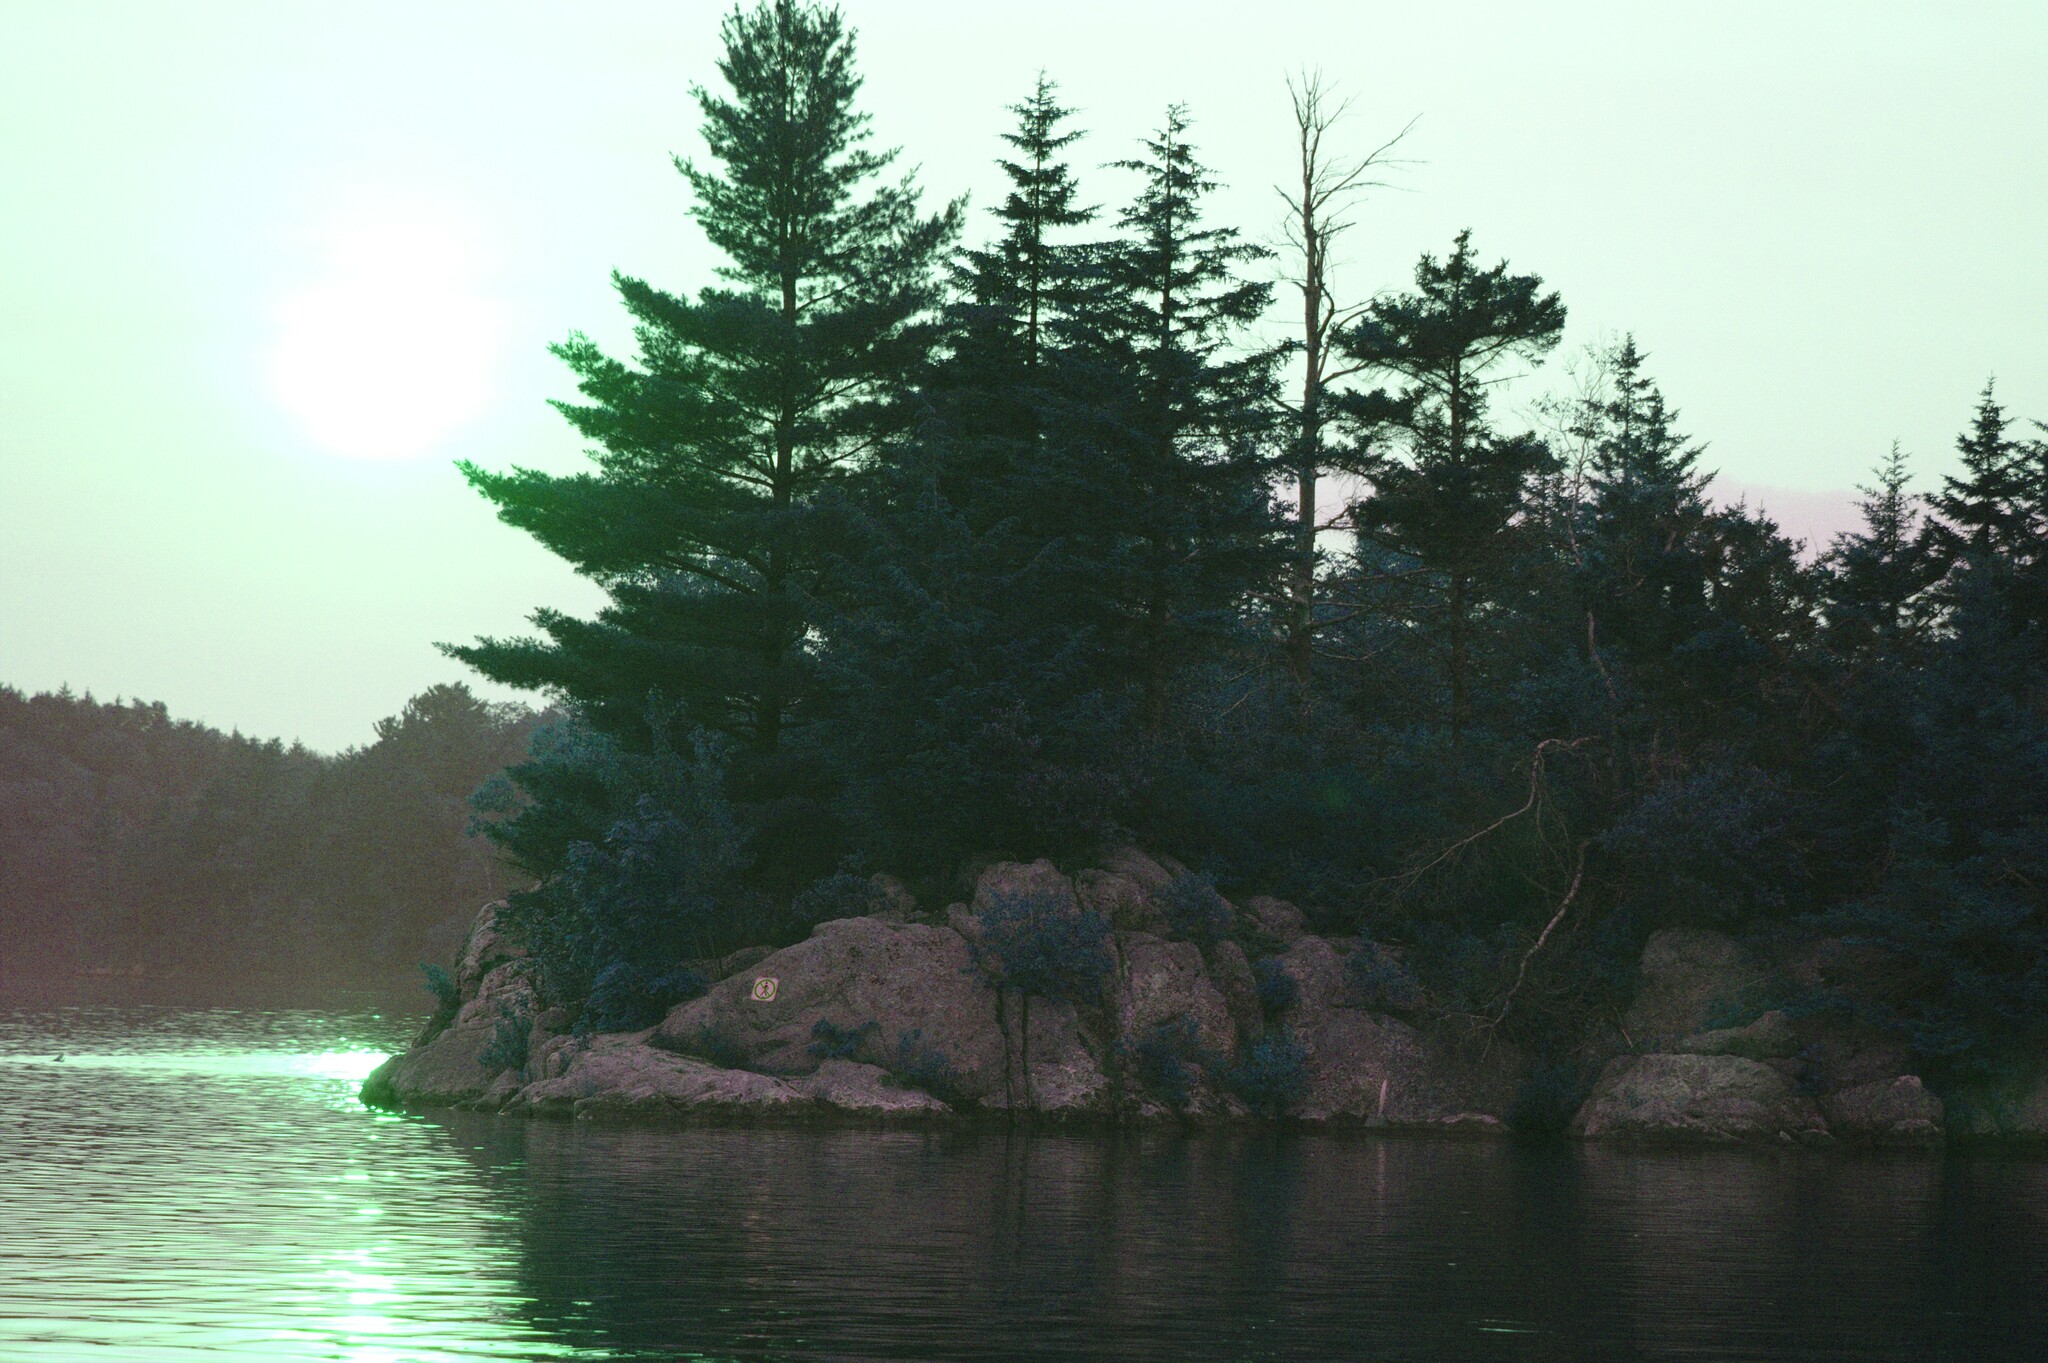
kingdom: Plantae
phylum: Tracheophyta
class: Pinopsida
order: Pinales
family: Pinaceae
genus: Pinus
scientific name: Pinus strobus
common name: Weymouth pine
